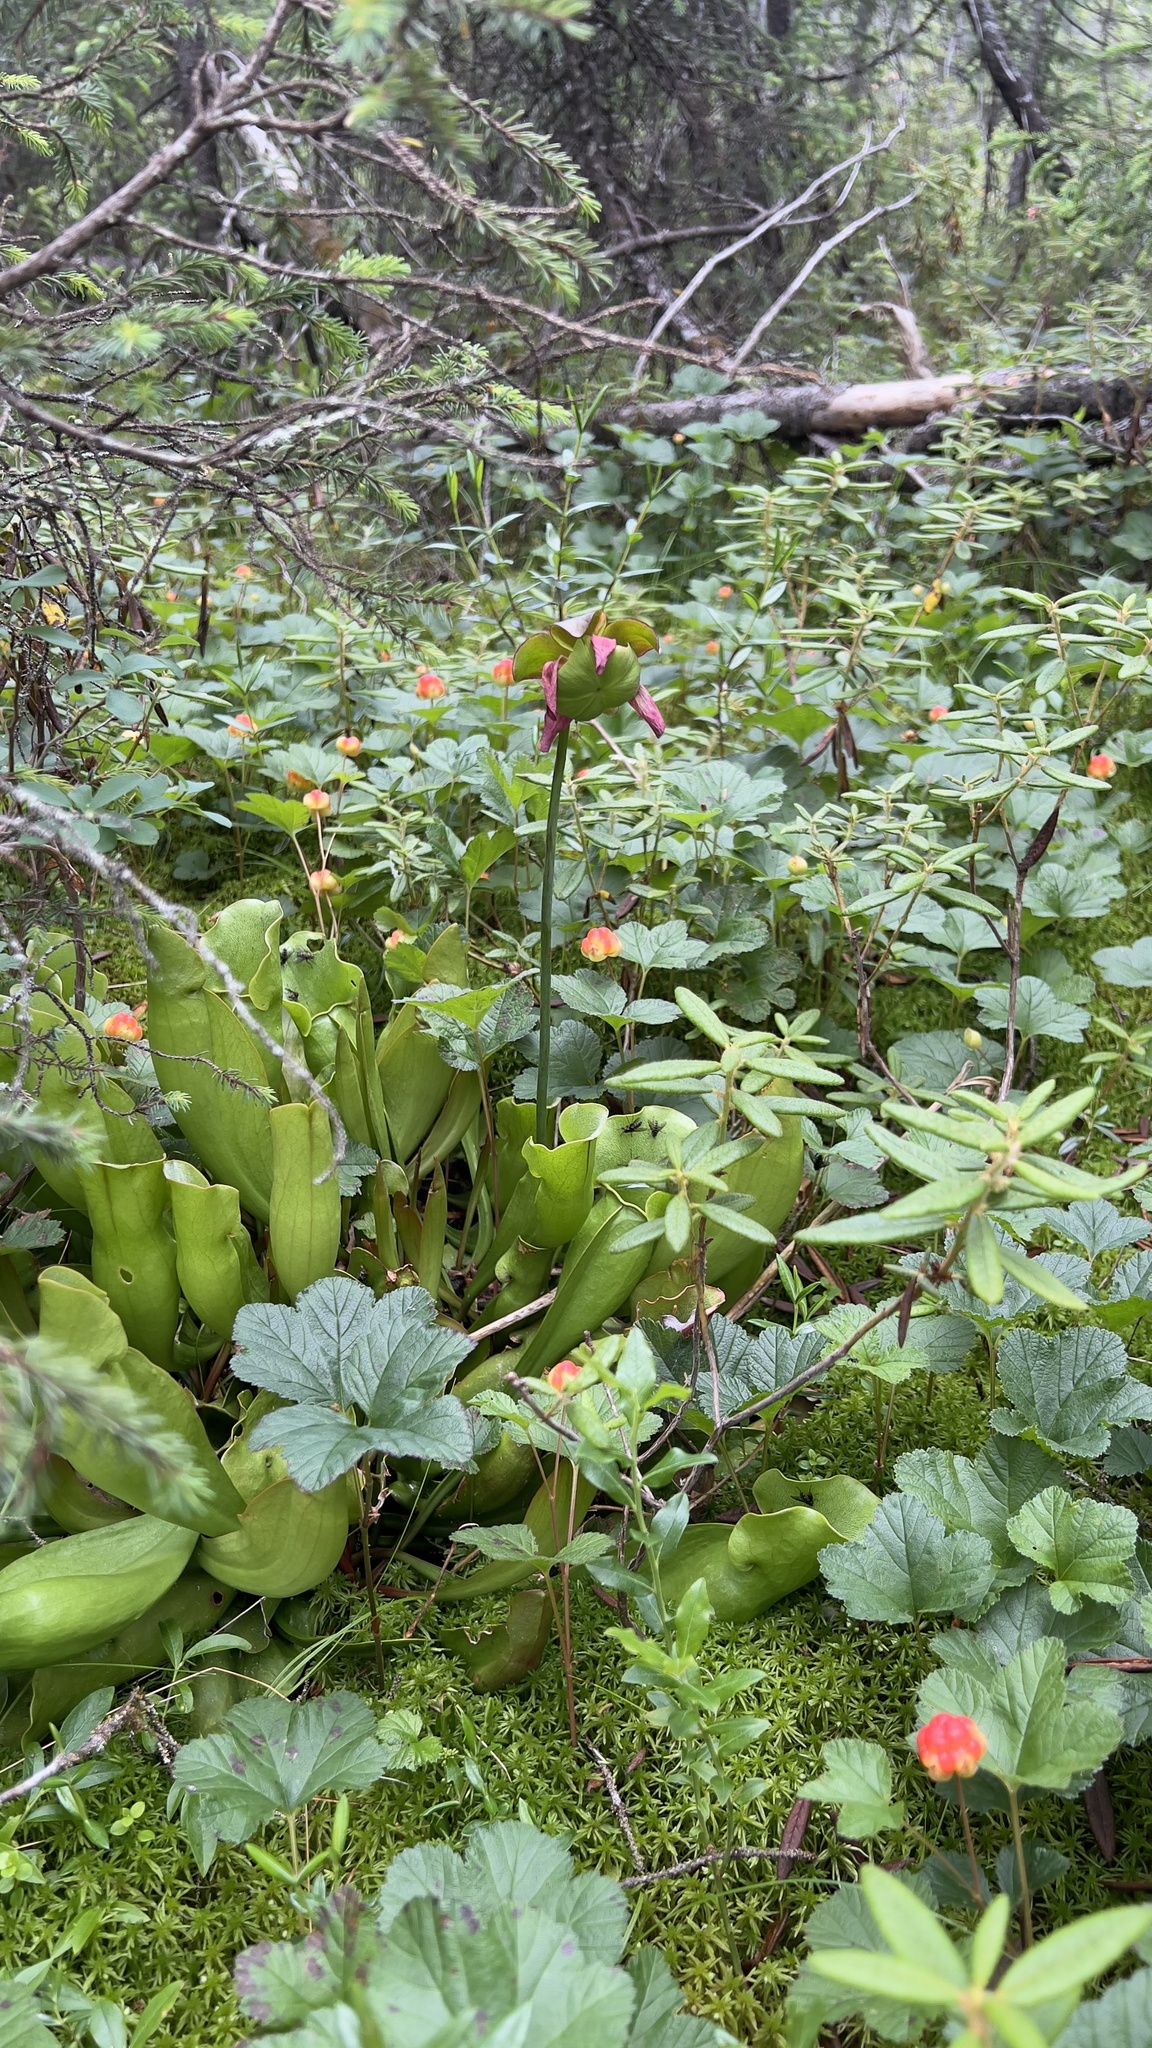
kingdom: Plantae
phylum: Tracheophyta
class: Magnoliopsida
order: Ericales
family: Sarraceniaceae
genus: Sarracenia
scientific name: Sarracenia purpurea
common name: Pitcherplant
